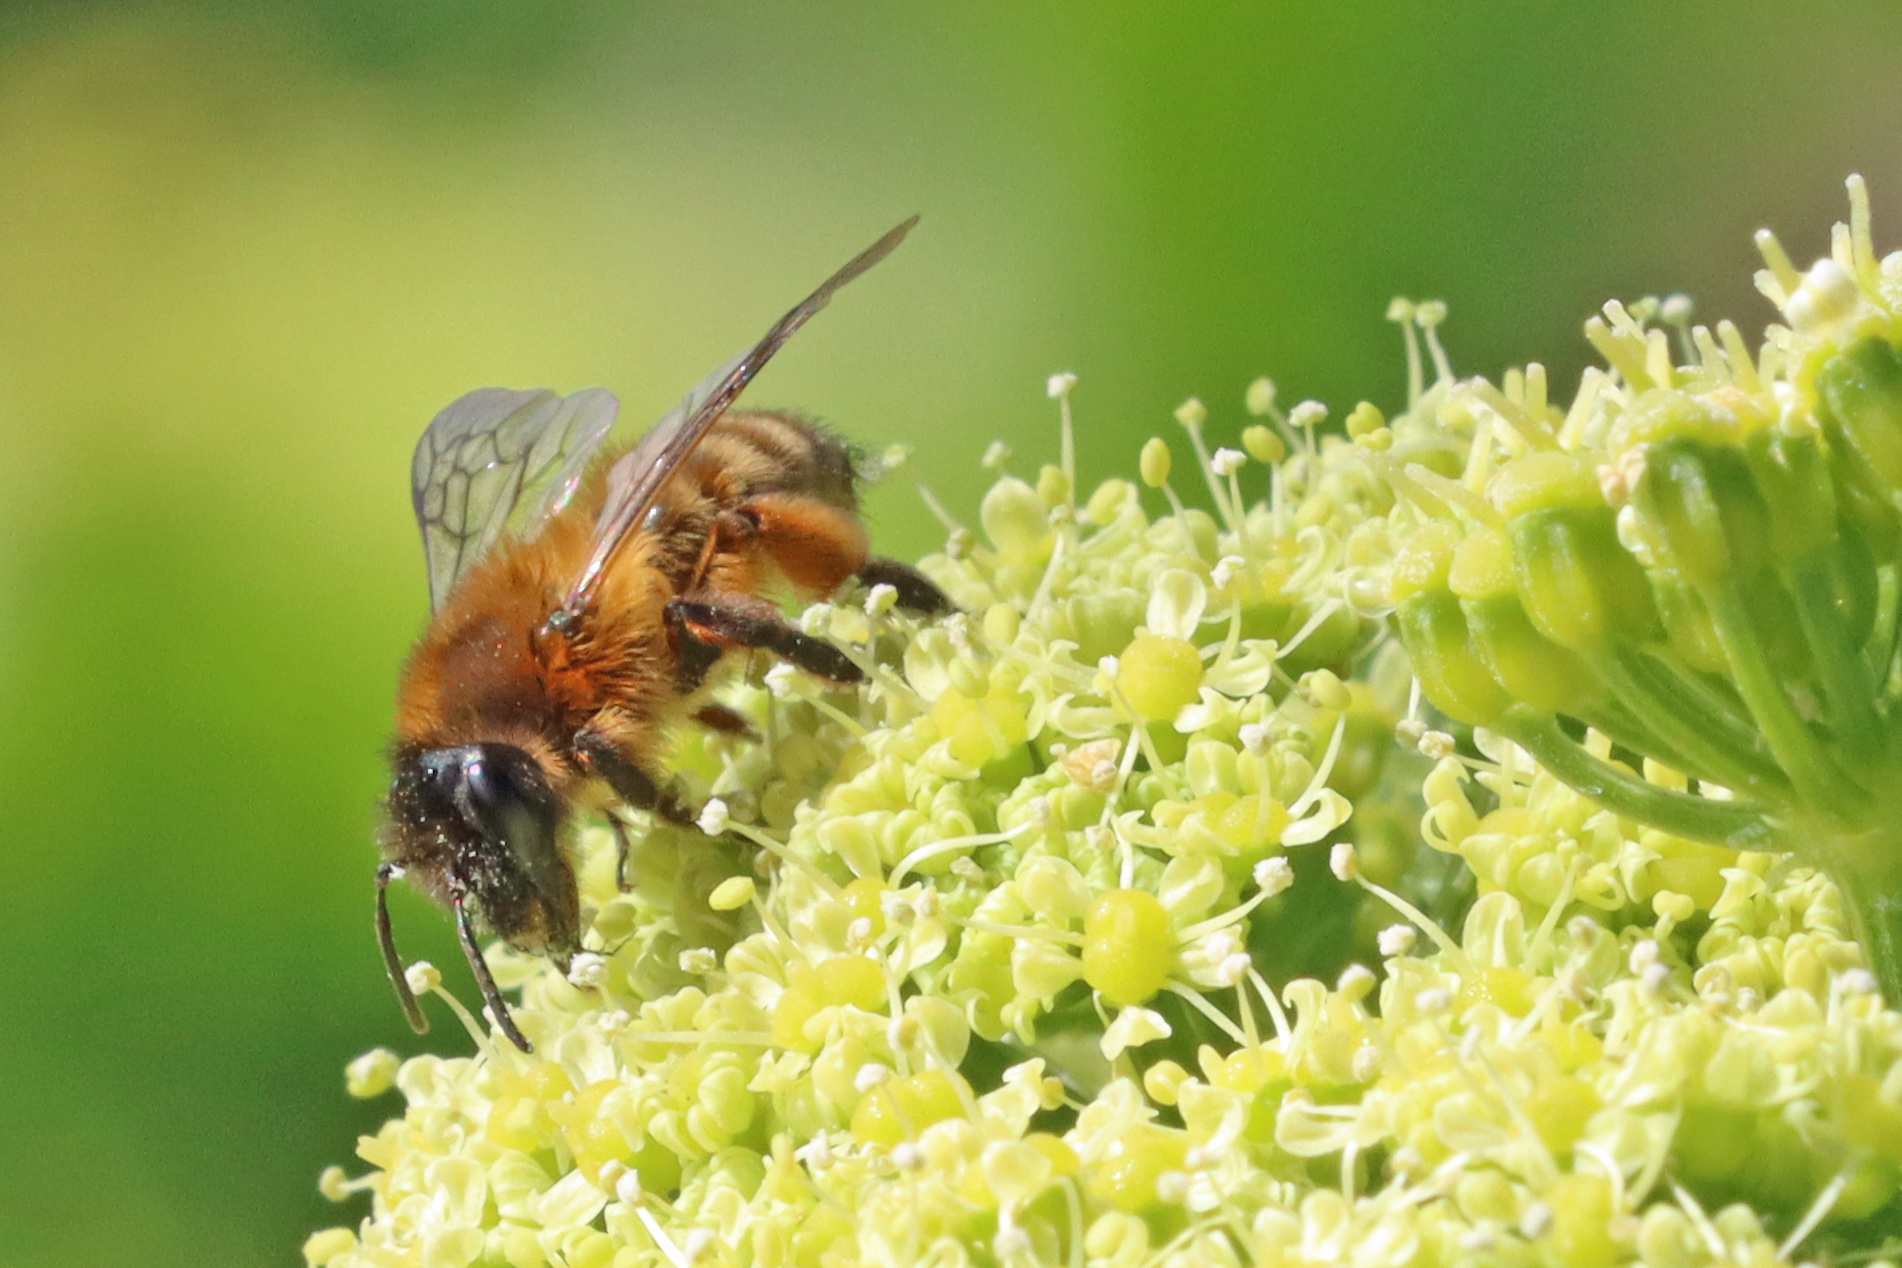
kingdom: Animalia
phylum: Arthropoda
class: Insecta
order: Hymenoptera
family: Andrenidae
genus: Andrena
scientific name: Andrena nigroaenea
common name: Buffish mining bee
